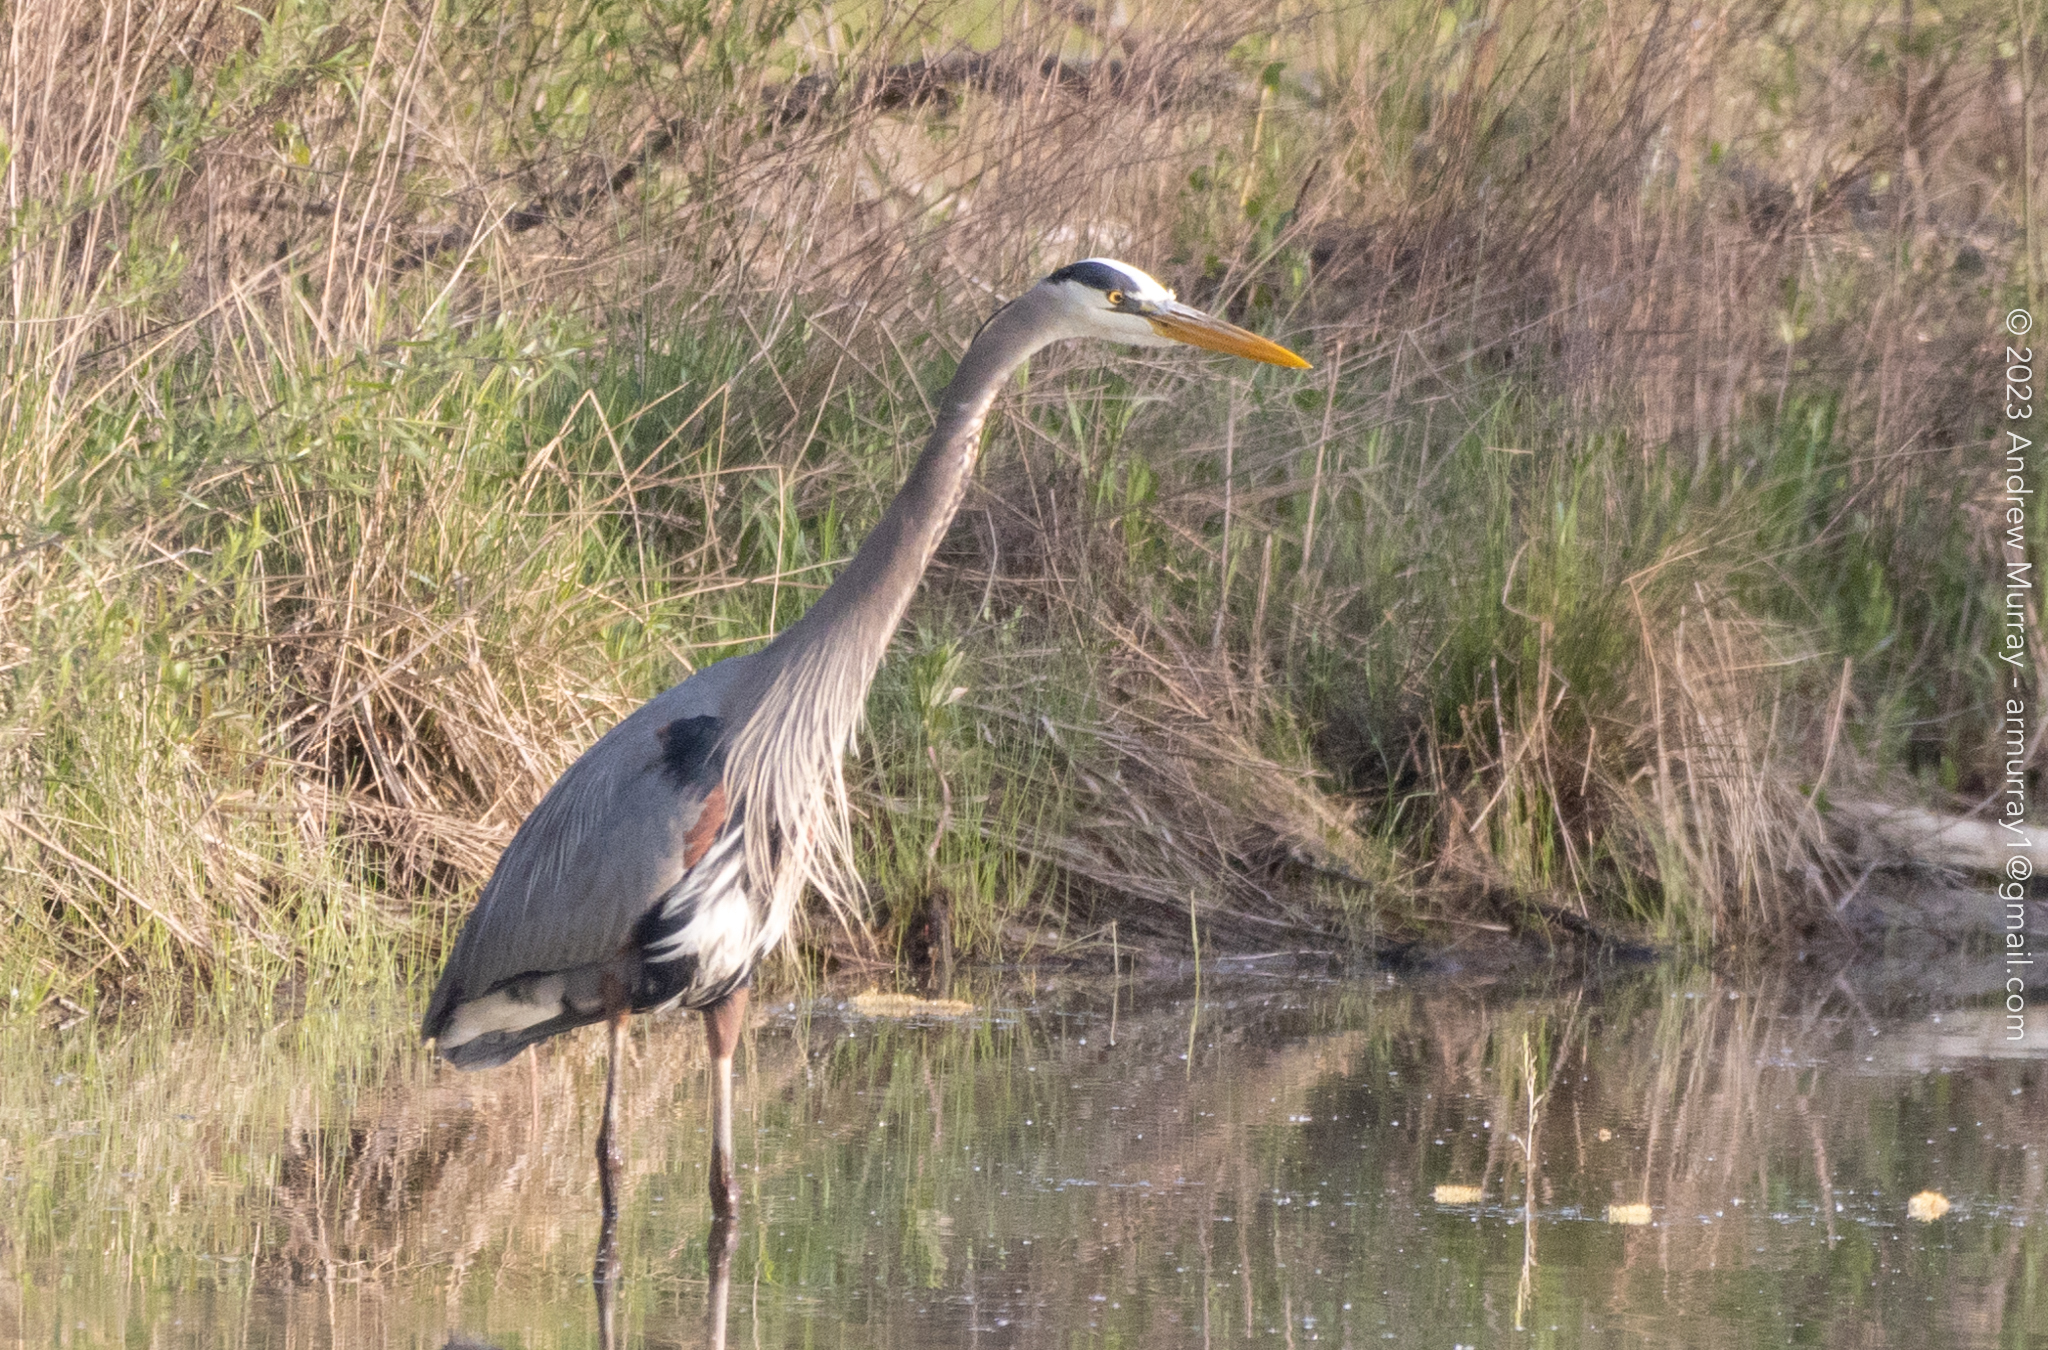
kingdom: Animalia
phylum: Chordata
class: Aves
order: Pelecaniformes
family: Ardeidae
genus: Ardea
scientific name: Ardea herodias
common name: Great blue heron
